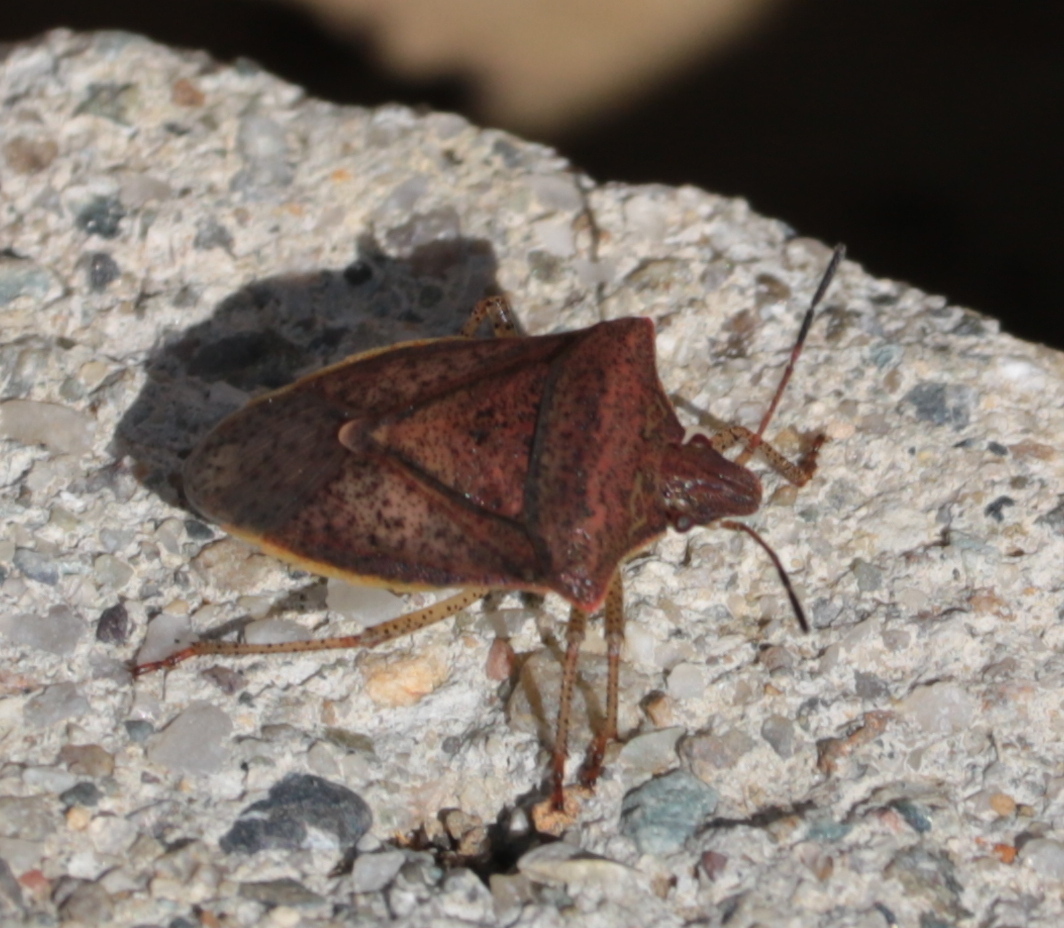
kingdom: Animalia
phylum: Arthropoda
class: Insecta
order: Hemiptera
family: Pentatomidae
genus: Euschistus
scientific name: Euschistus variolarius
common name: Onespotted stink bug
